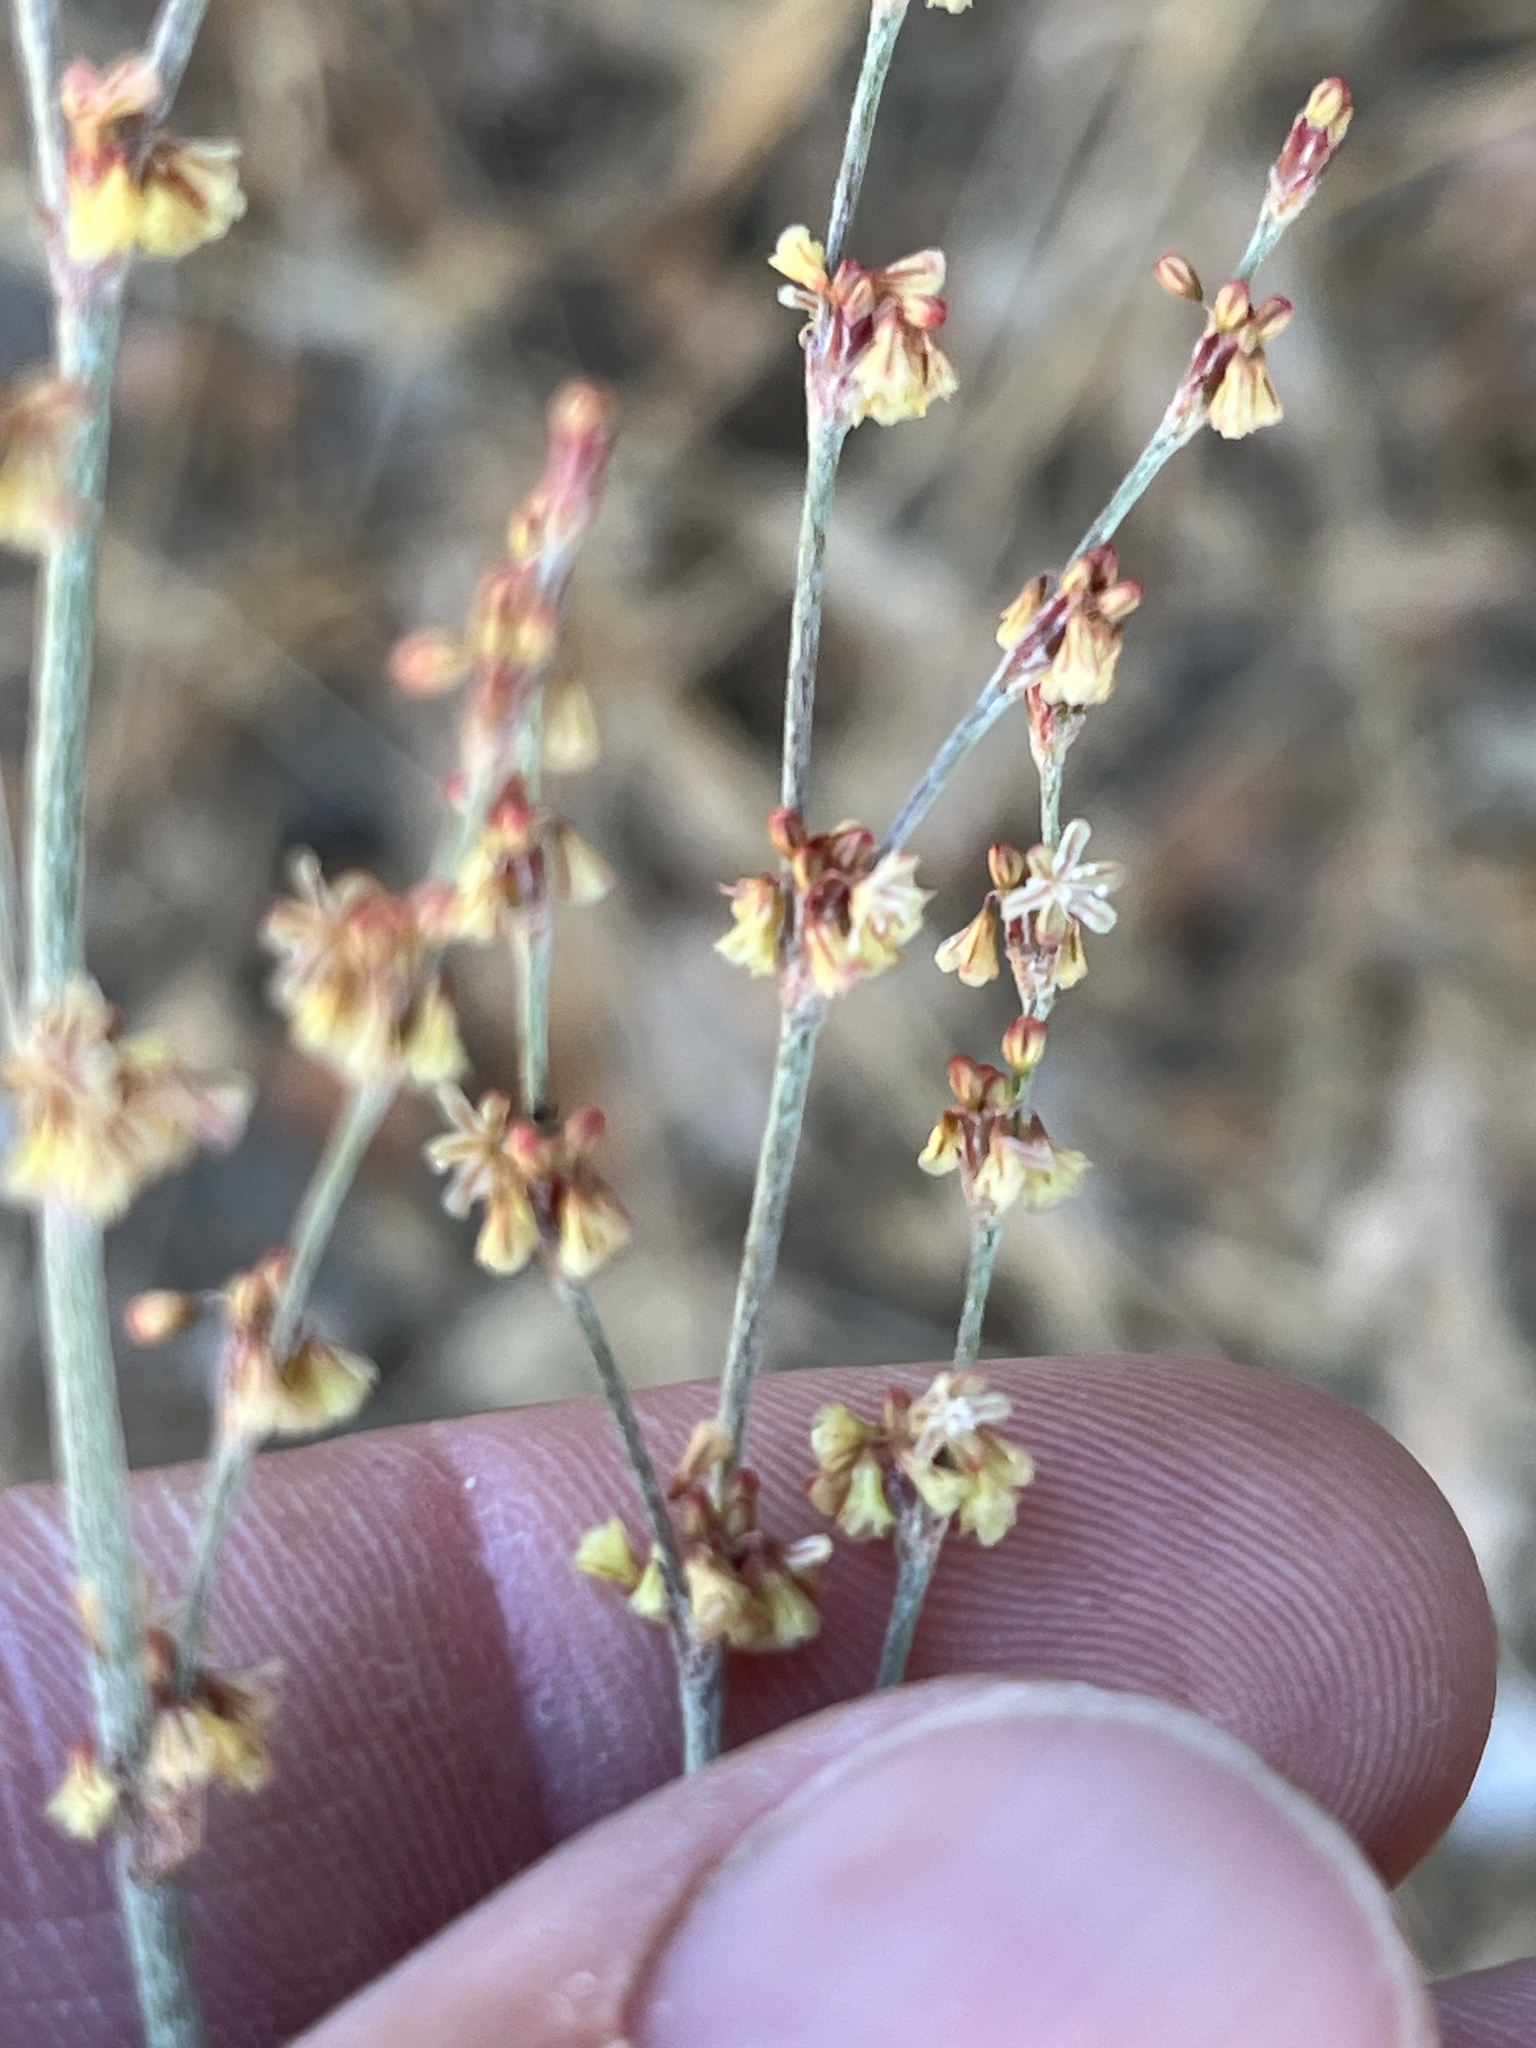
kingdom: Plantae
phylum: Tracheophyta
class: Magnoliopsida
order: Caryophyllales
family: Polygonaceae
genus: Eriogonum
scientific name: Eriogonum gracile
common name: Slender woolly buckwheat
